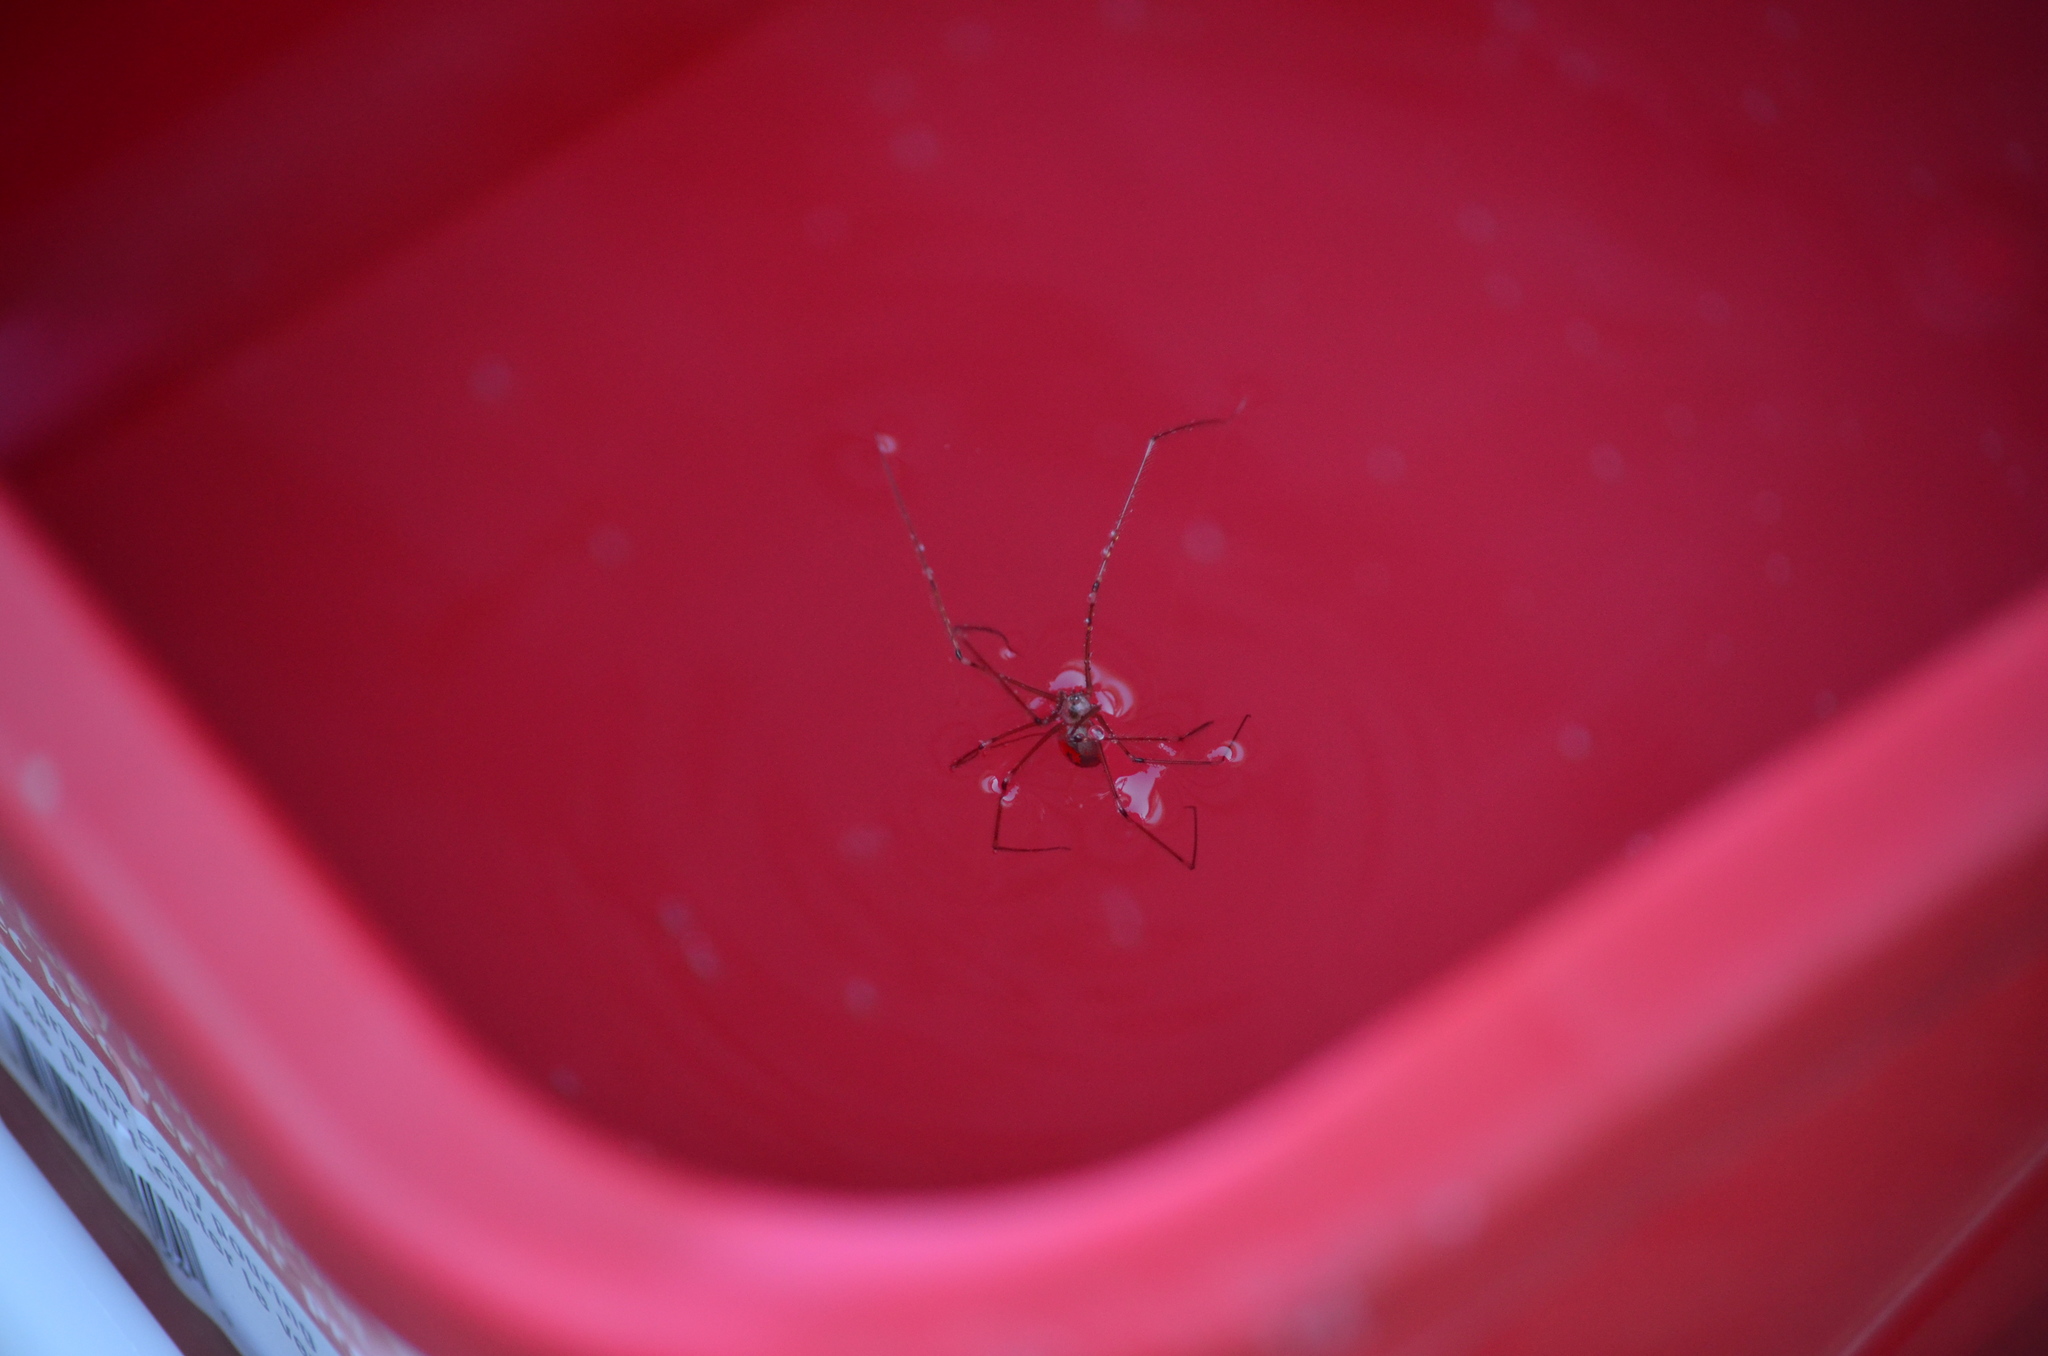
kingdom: Animalia
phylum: Arthropoda
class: Arachnida
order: Araneae
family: Pholcidae
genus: Pholcus
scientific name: Pholcus phalangioides
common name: Longbodied cellar spider
